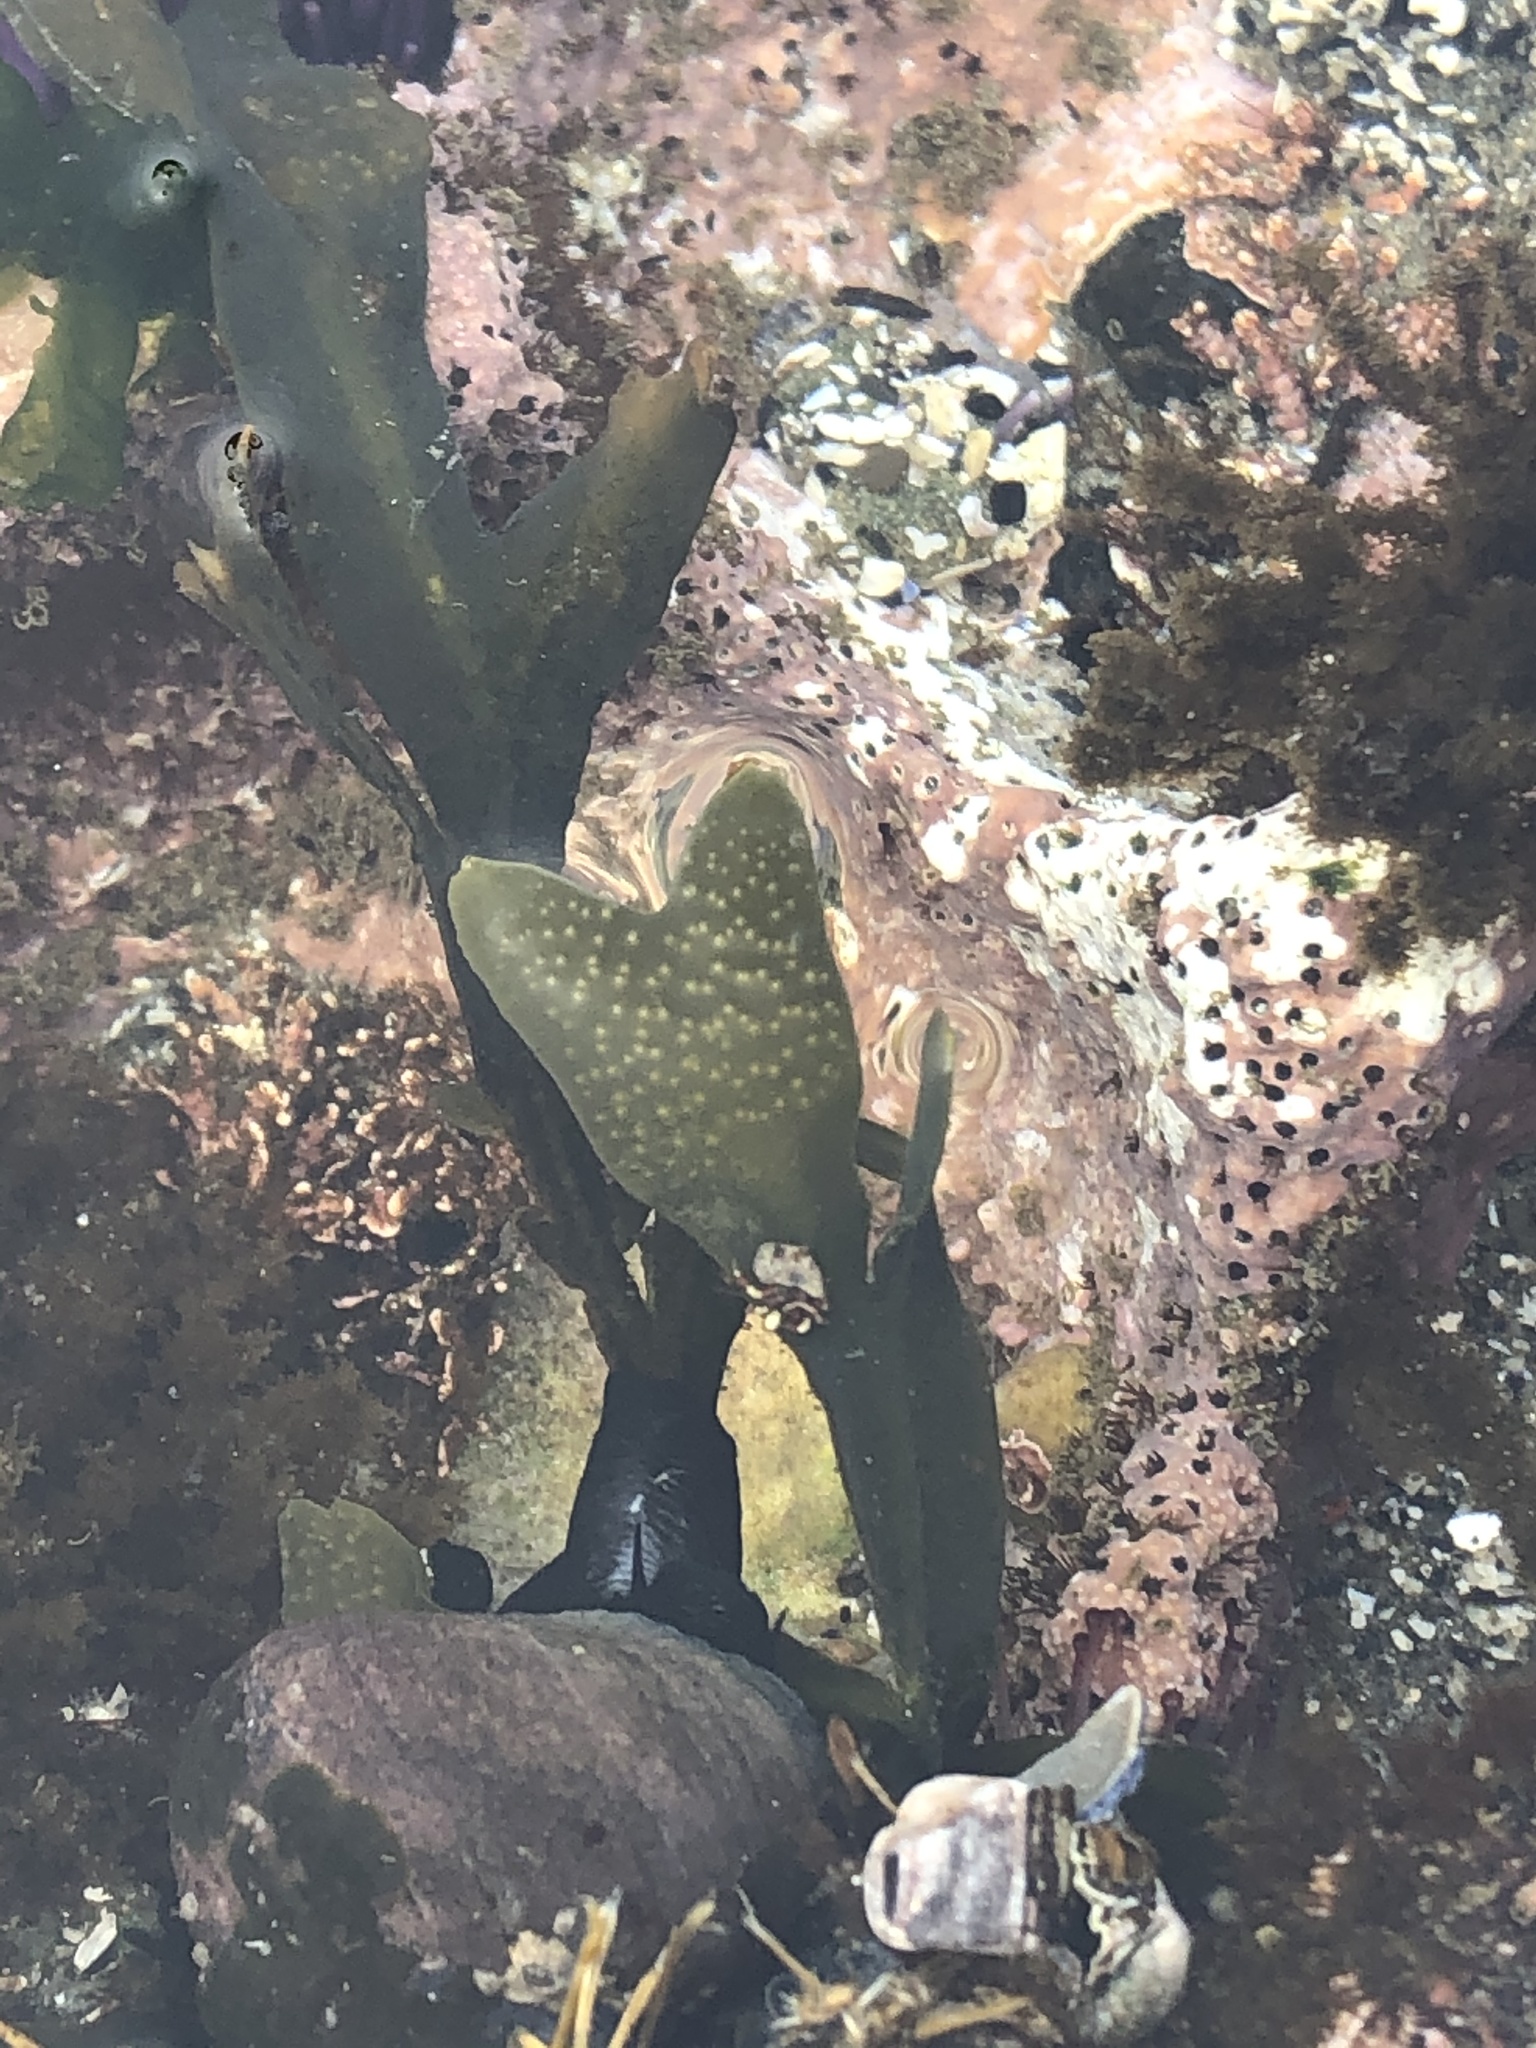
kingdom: Chromista
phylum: Ochrophyta
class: Phaeophyceae
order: Fucales
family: Fucaceae
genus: Fucus
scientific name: Fucus distichus
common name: Rockweed
